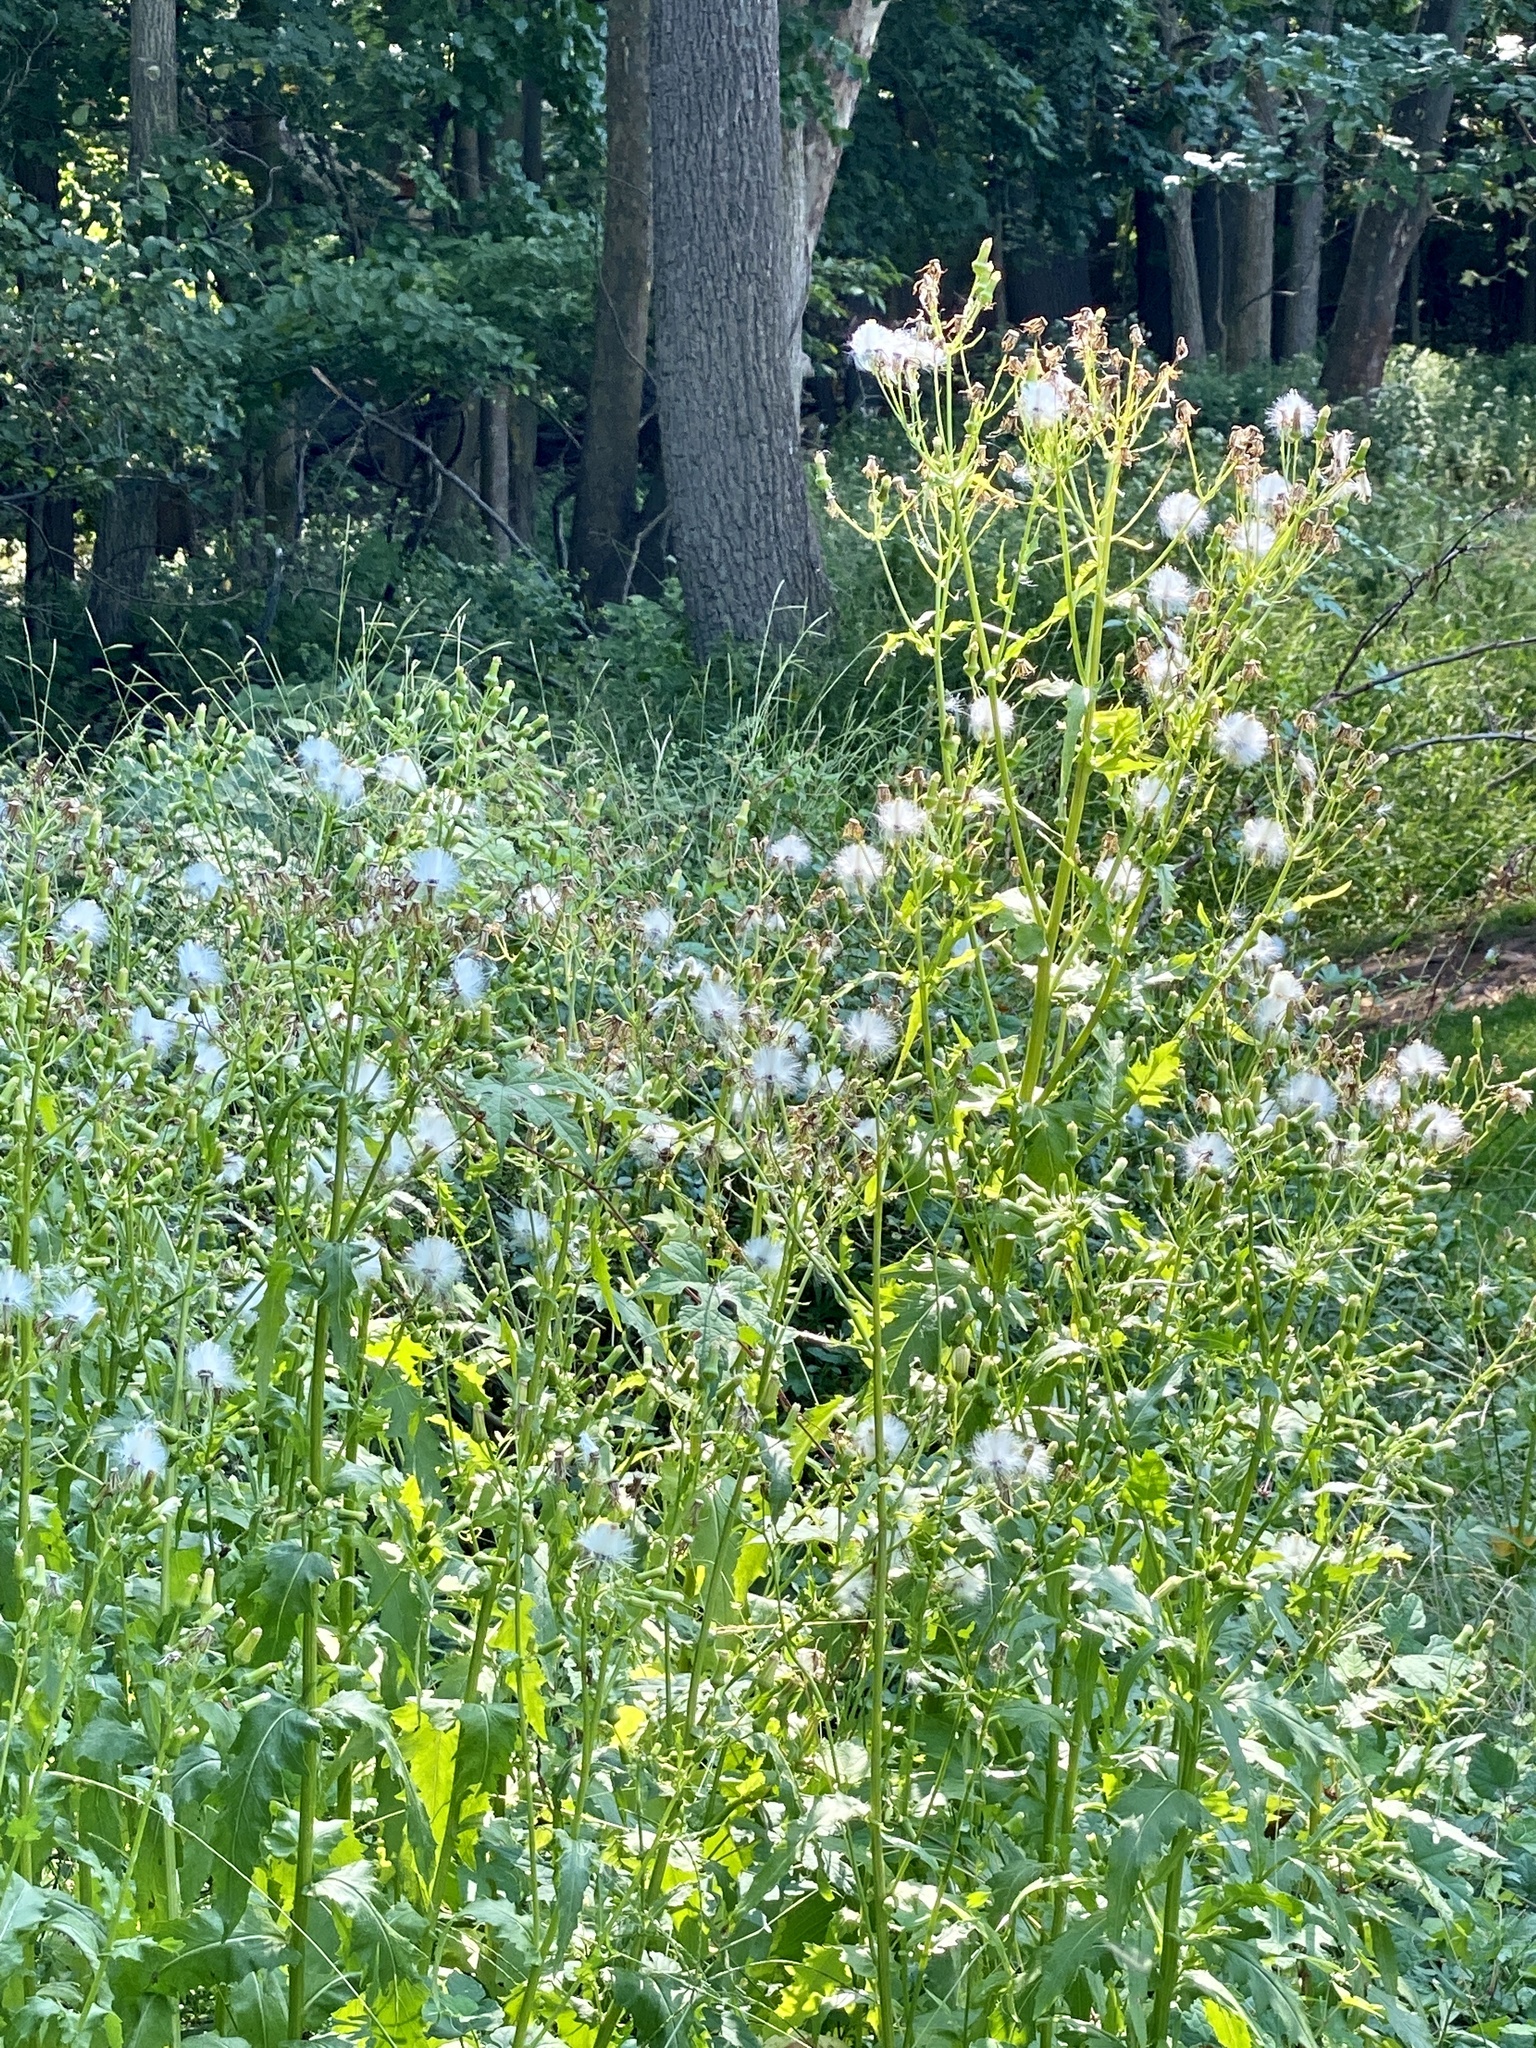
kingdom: Plantae
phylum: Tracheophyta
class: Magnoliopsida
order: Asterales
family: Asteraceae
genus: Erechtites
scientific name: Erechtites hieraciifolius
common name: American burnweed
